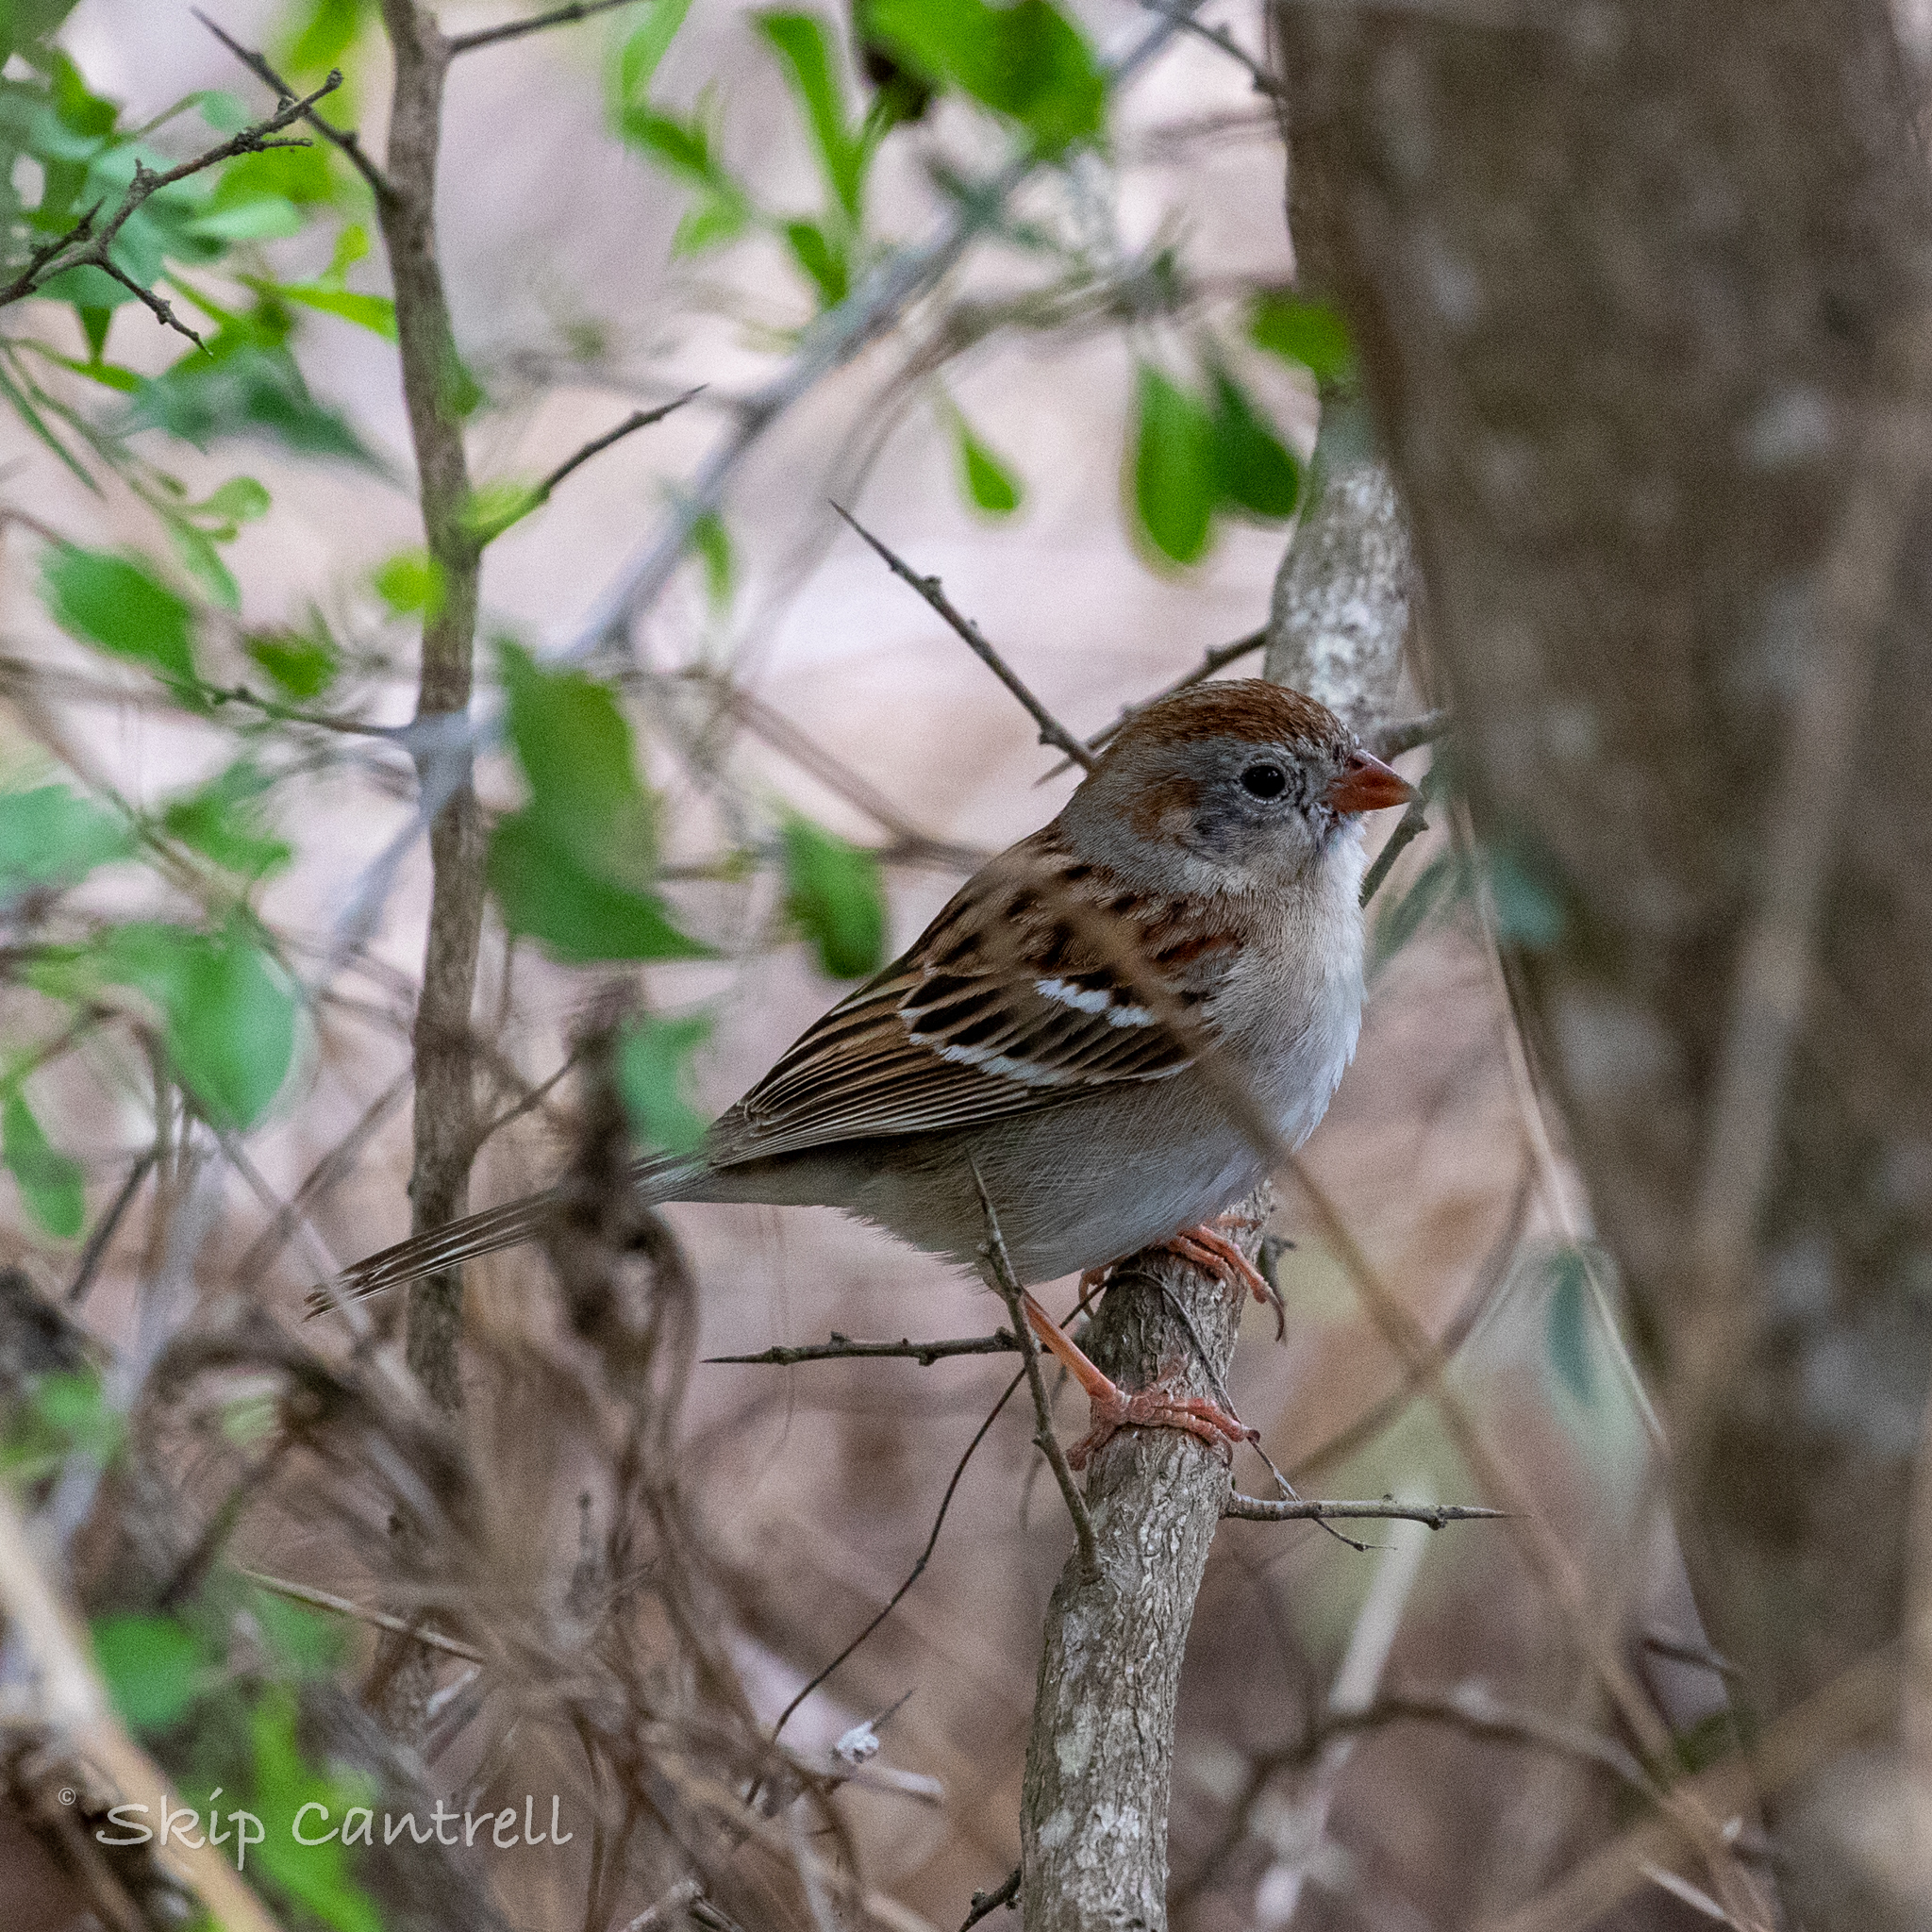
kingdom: Animalia
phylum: Chordata
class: Aves
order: Passeriformes
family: Passerellidae
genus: Spizella
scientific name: Spizella pusilla
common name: Field sparrow
